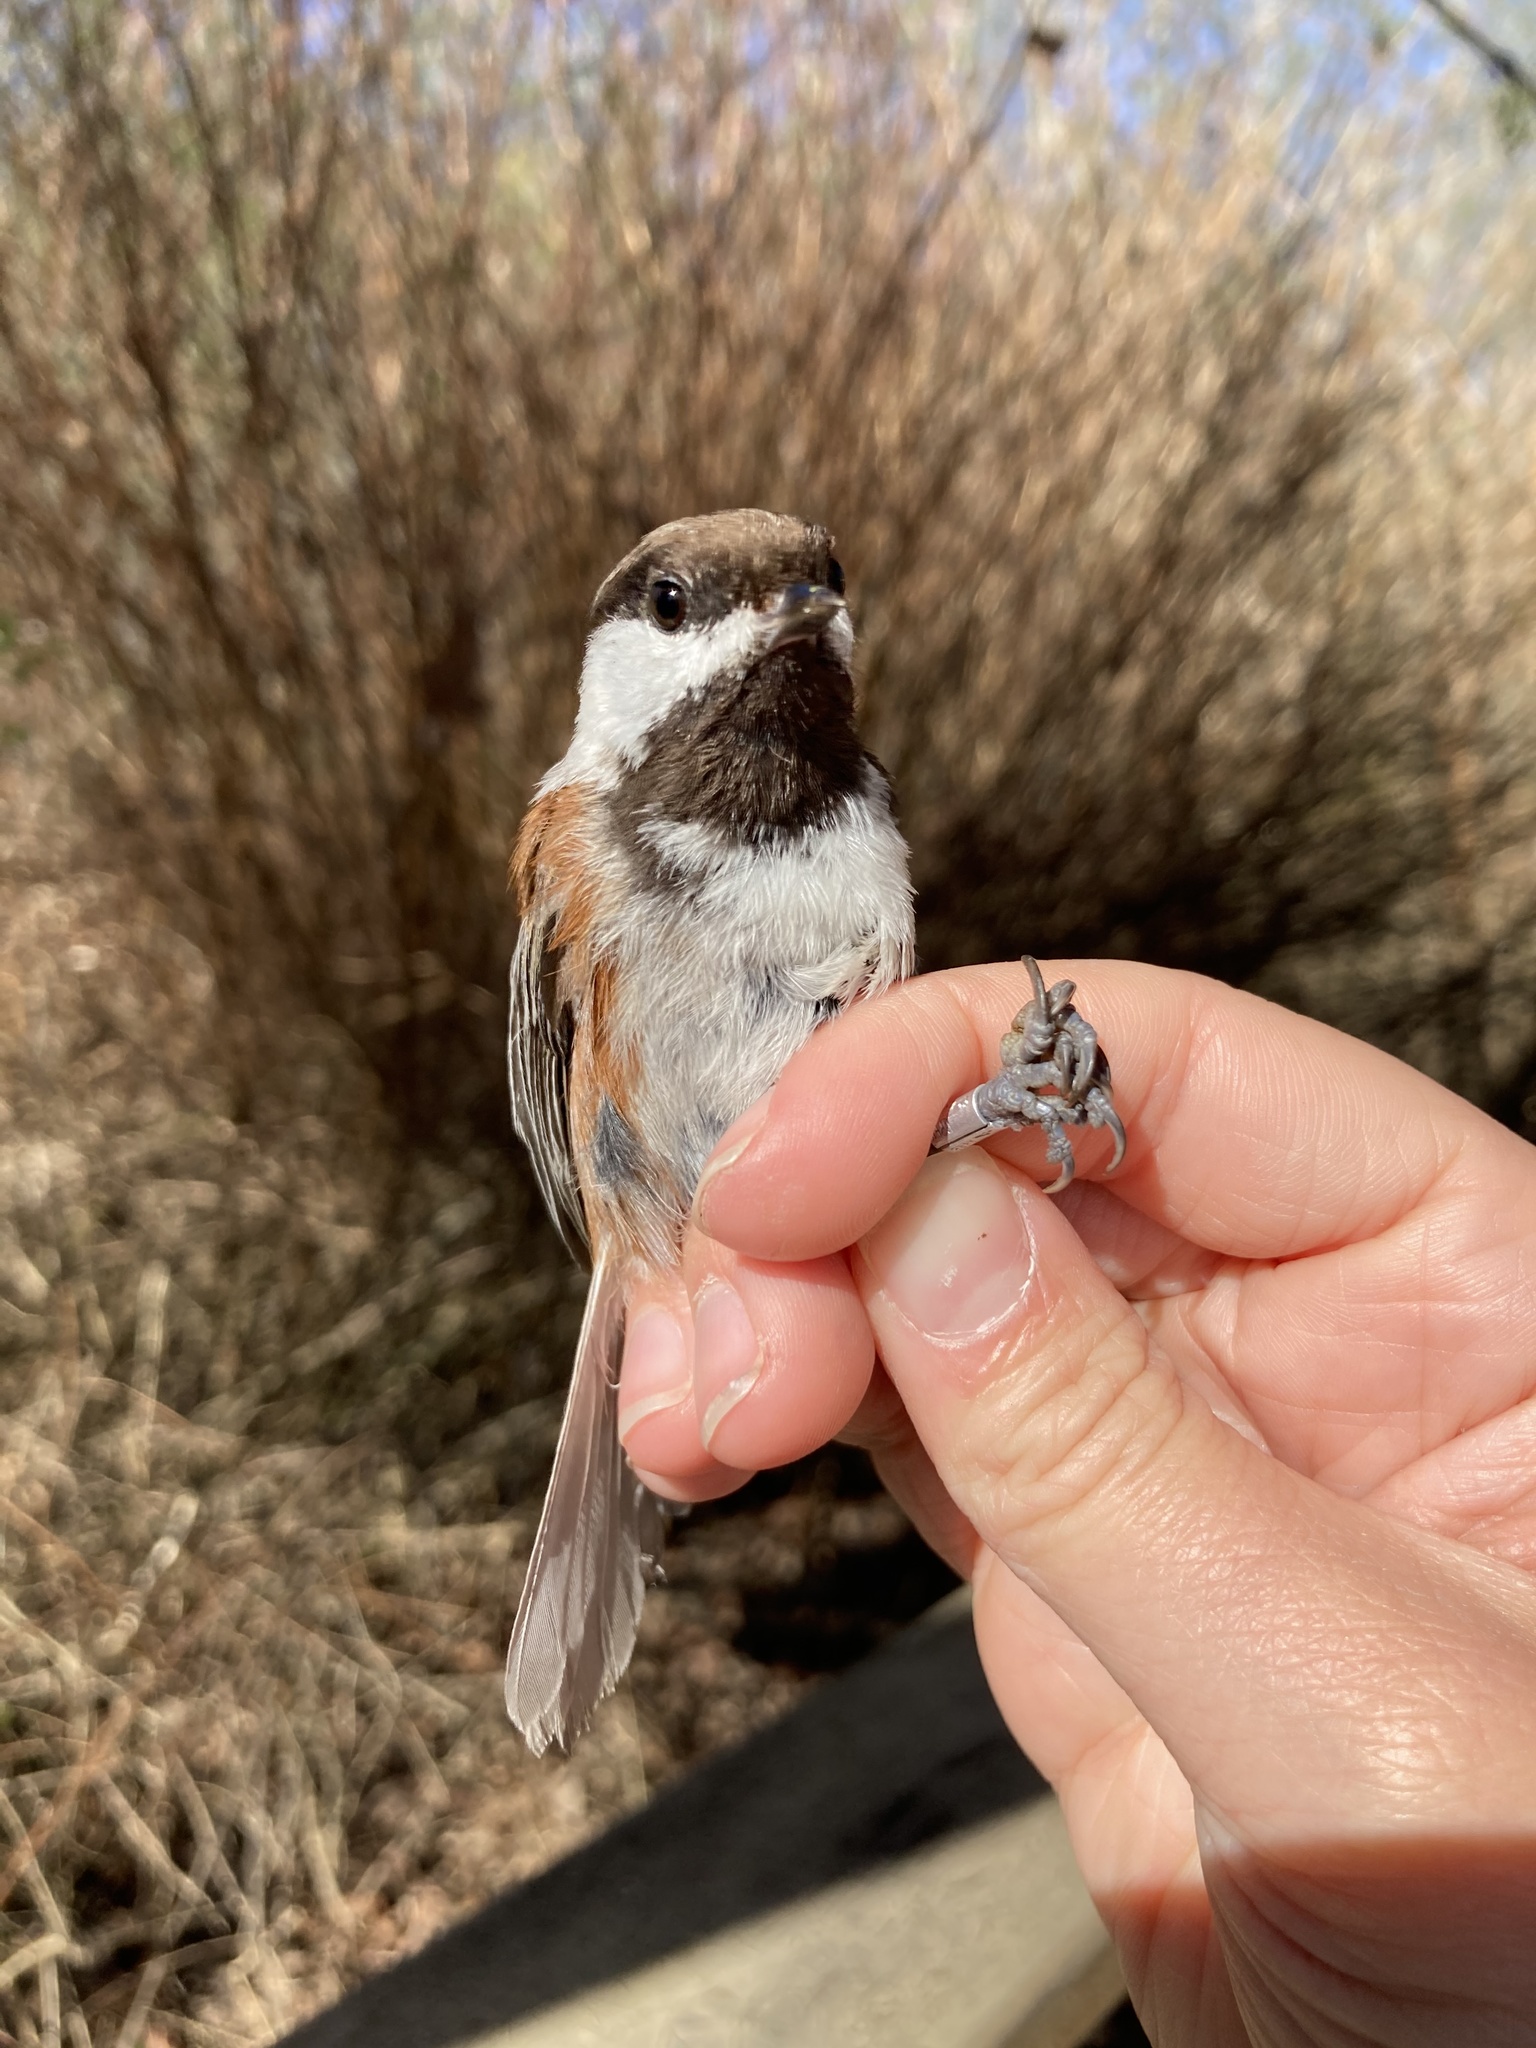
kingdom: Animalia
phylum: Chordata
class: Aves
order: Passeriformes
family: Paridae
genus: Poecile
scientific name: Poecile rufescens
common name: Chestnut-backed chickadee
